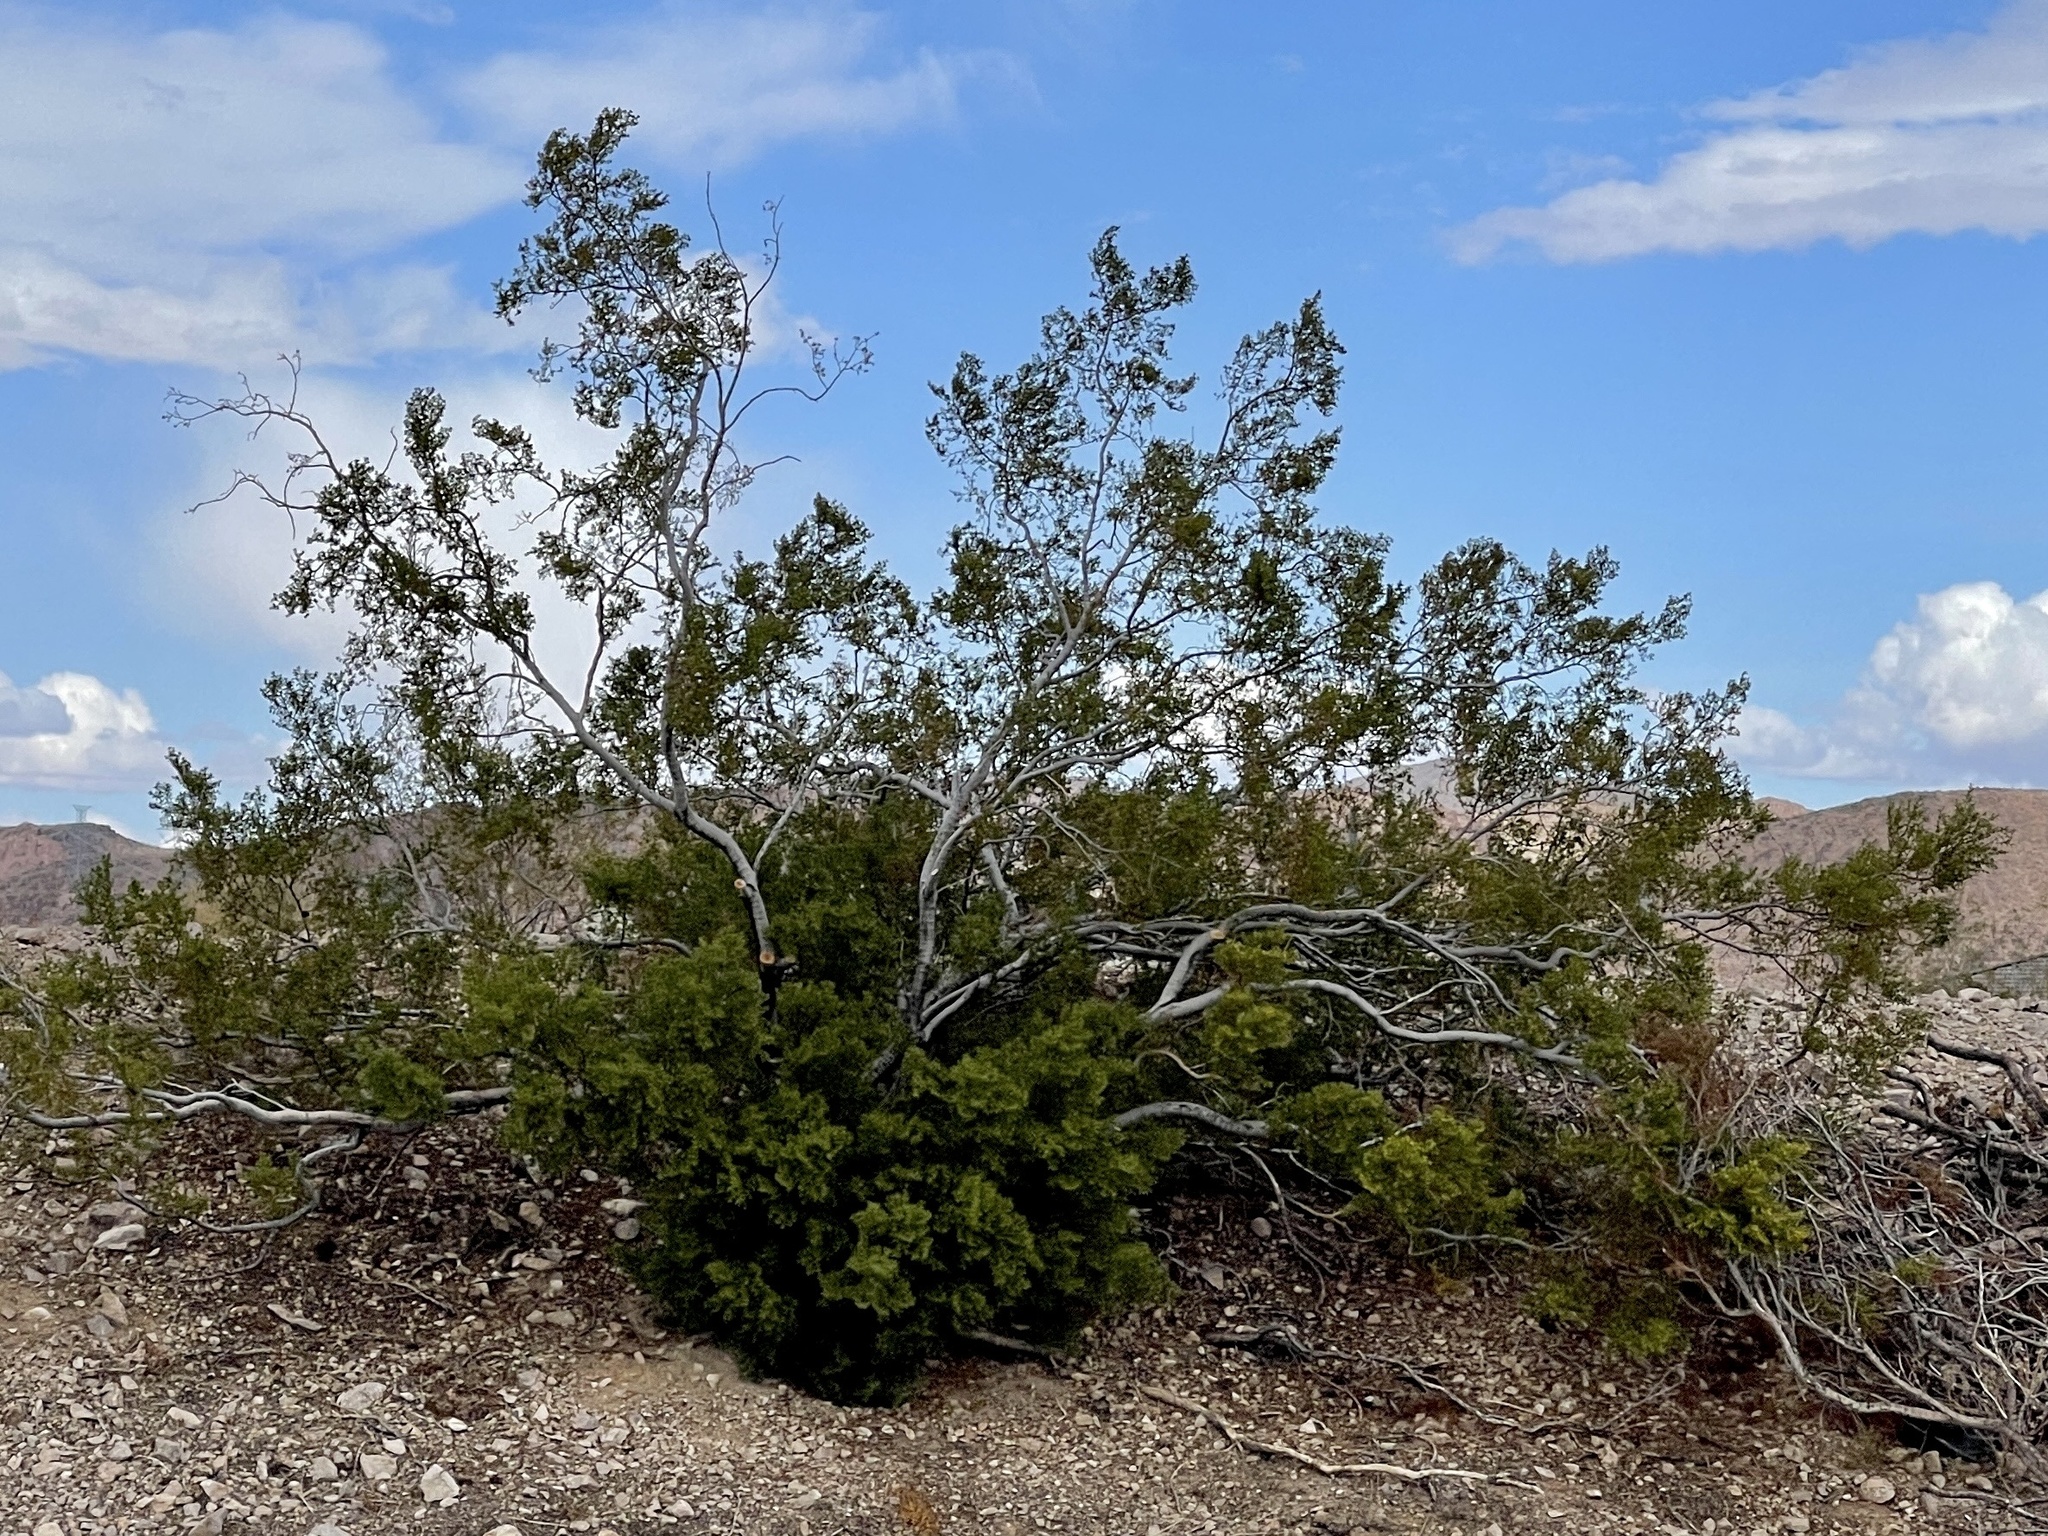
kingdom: Plantae
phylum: Tracheophyta
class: Magnoliopsida
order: Zygophyllales
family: Zygophyllaceae
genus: Larrea
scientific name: Larrea tridentata
